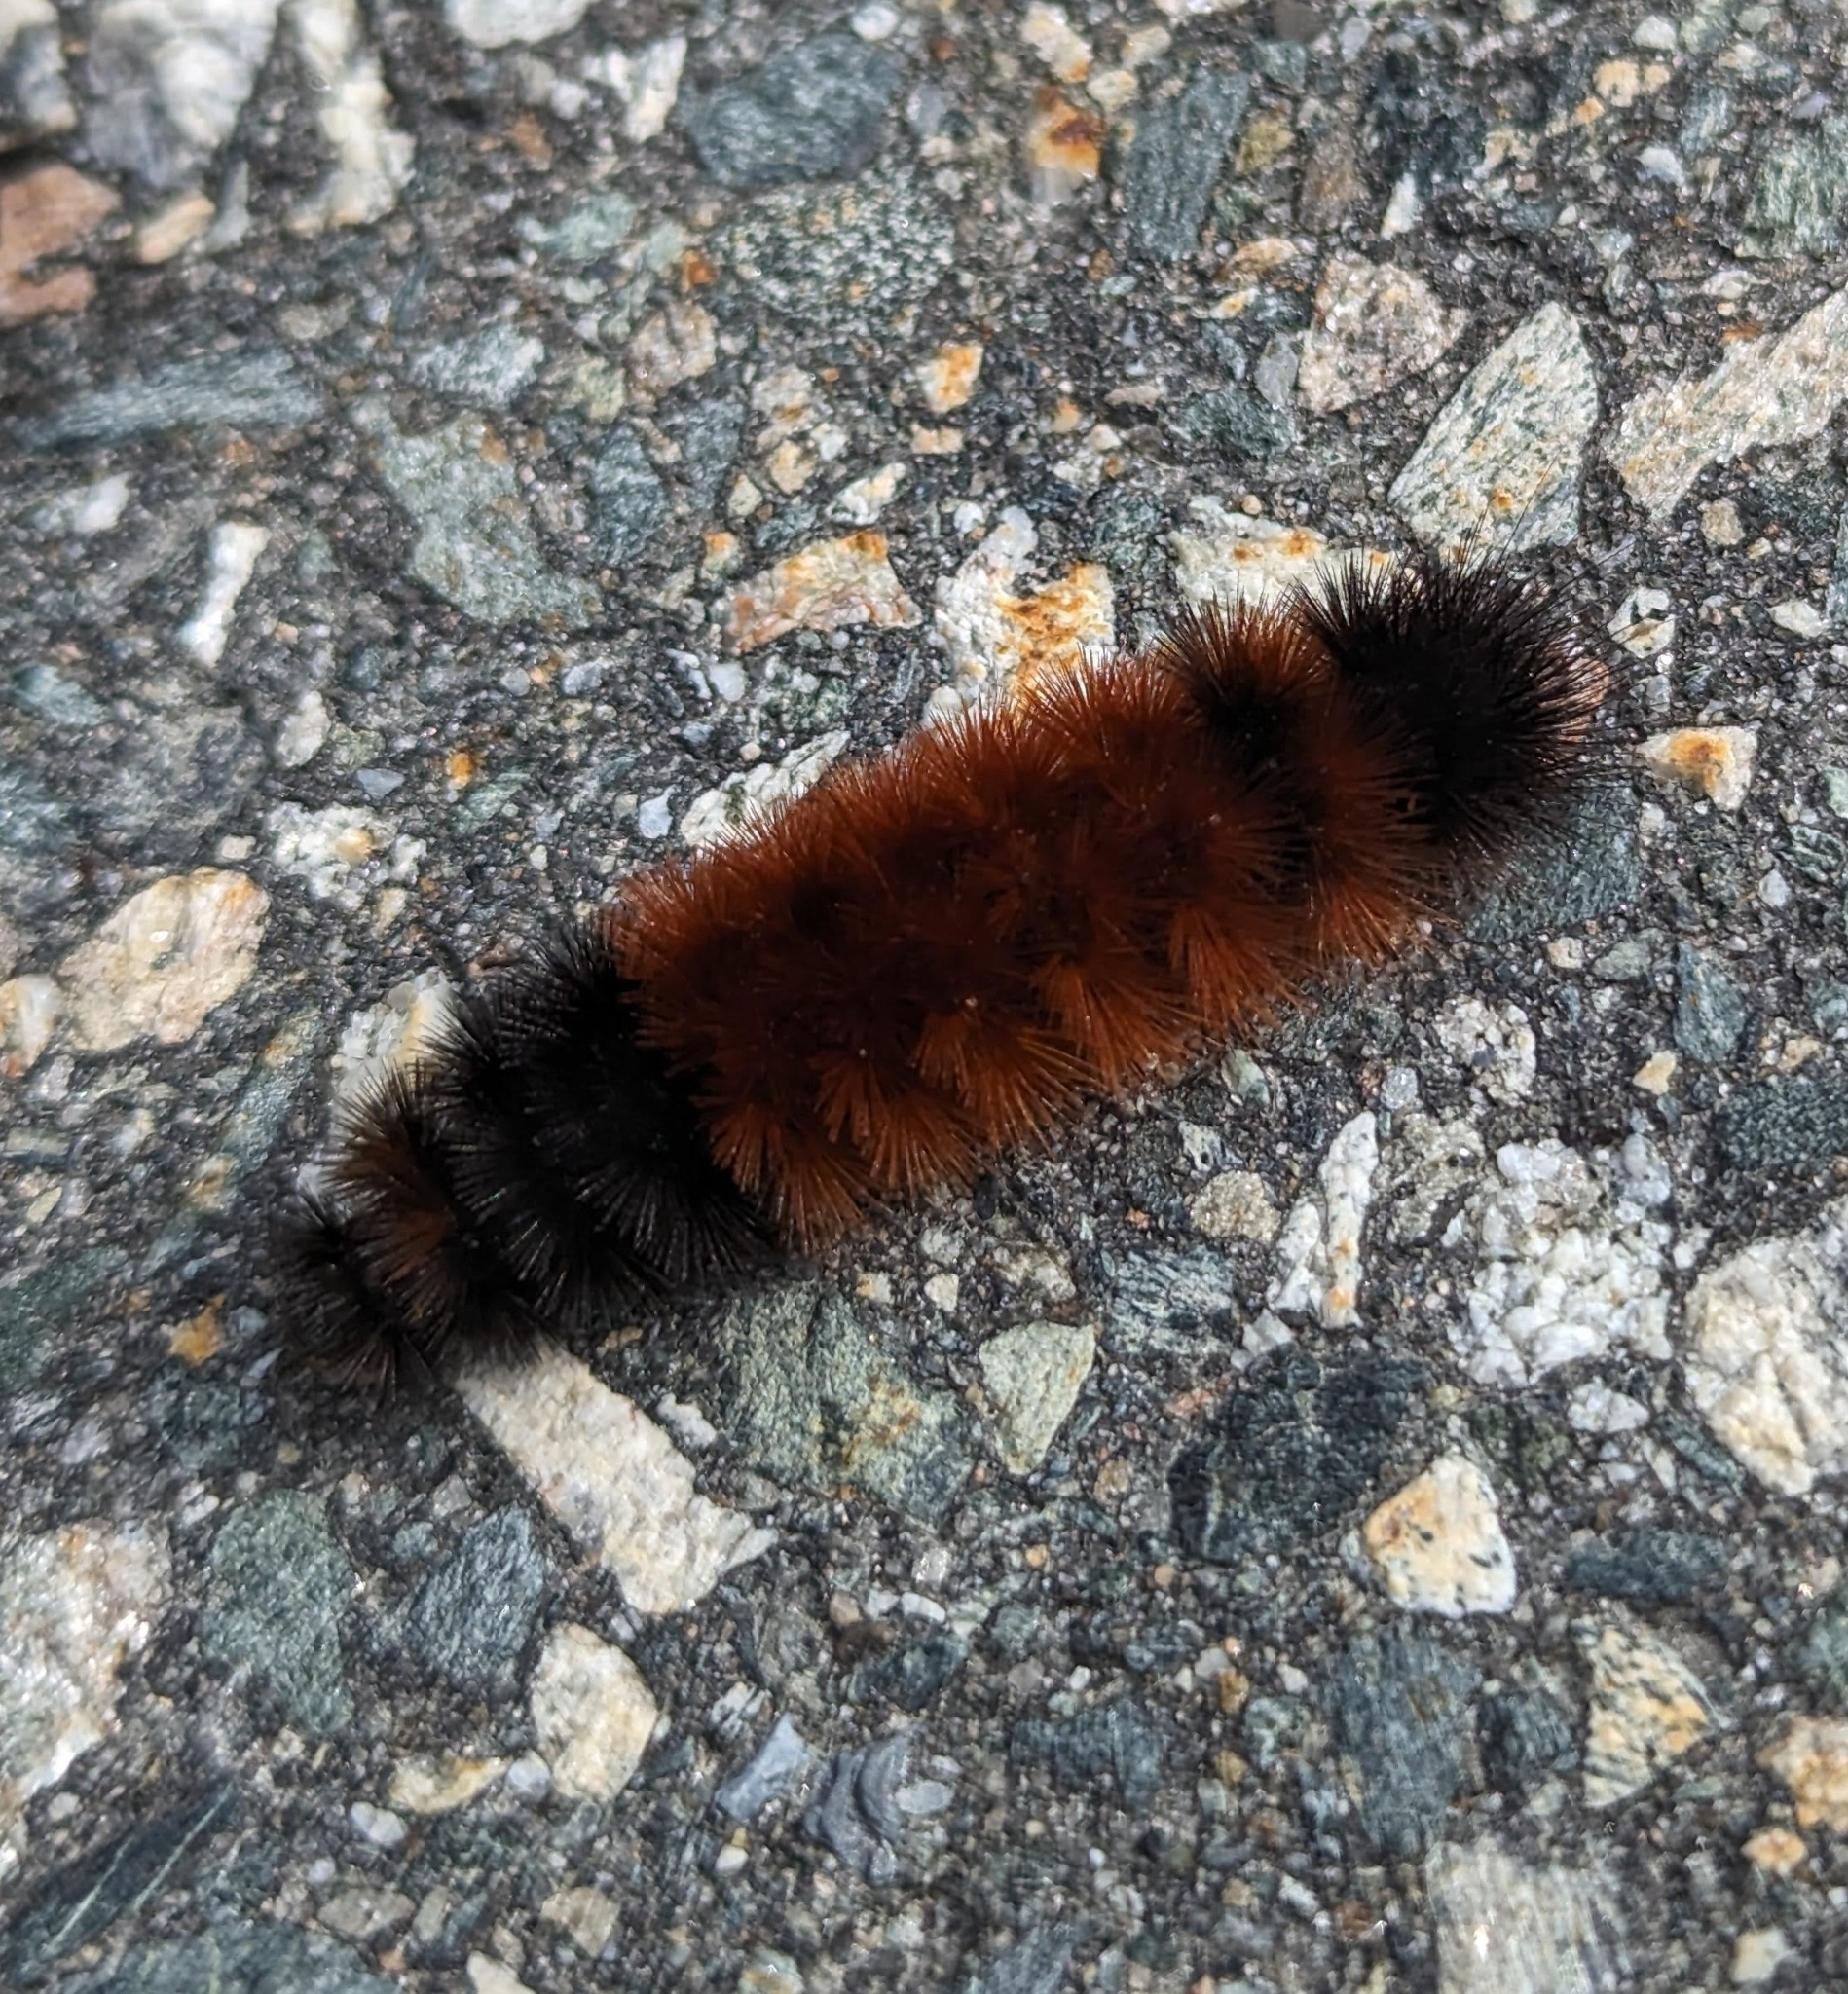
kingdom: Animalia
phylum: Arthropoda
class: Insecta
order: Lepidoptera
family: Erebidae
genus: Pyrrharctia
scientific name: Pyrrharctia isabella
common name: Isabella tiger moth
